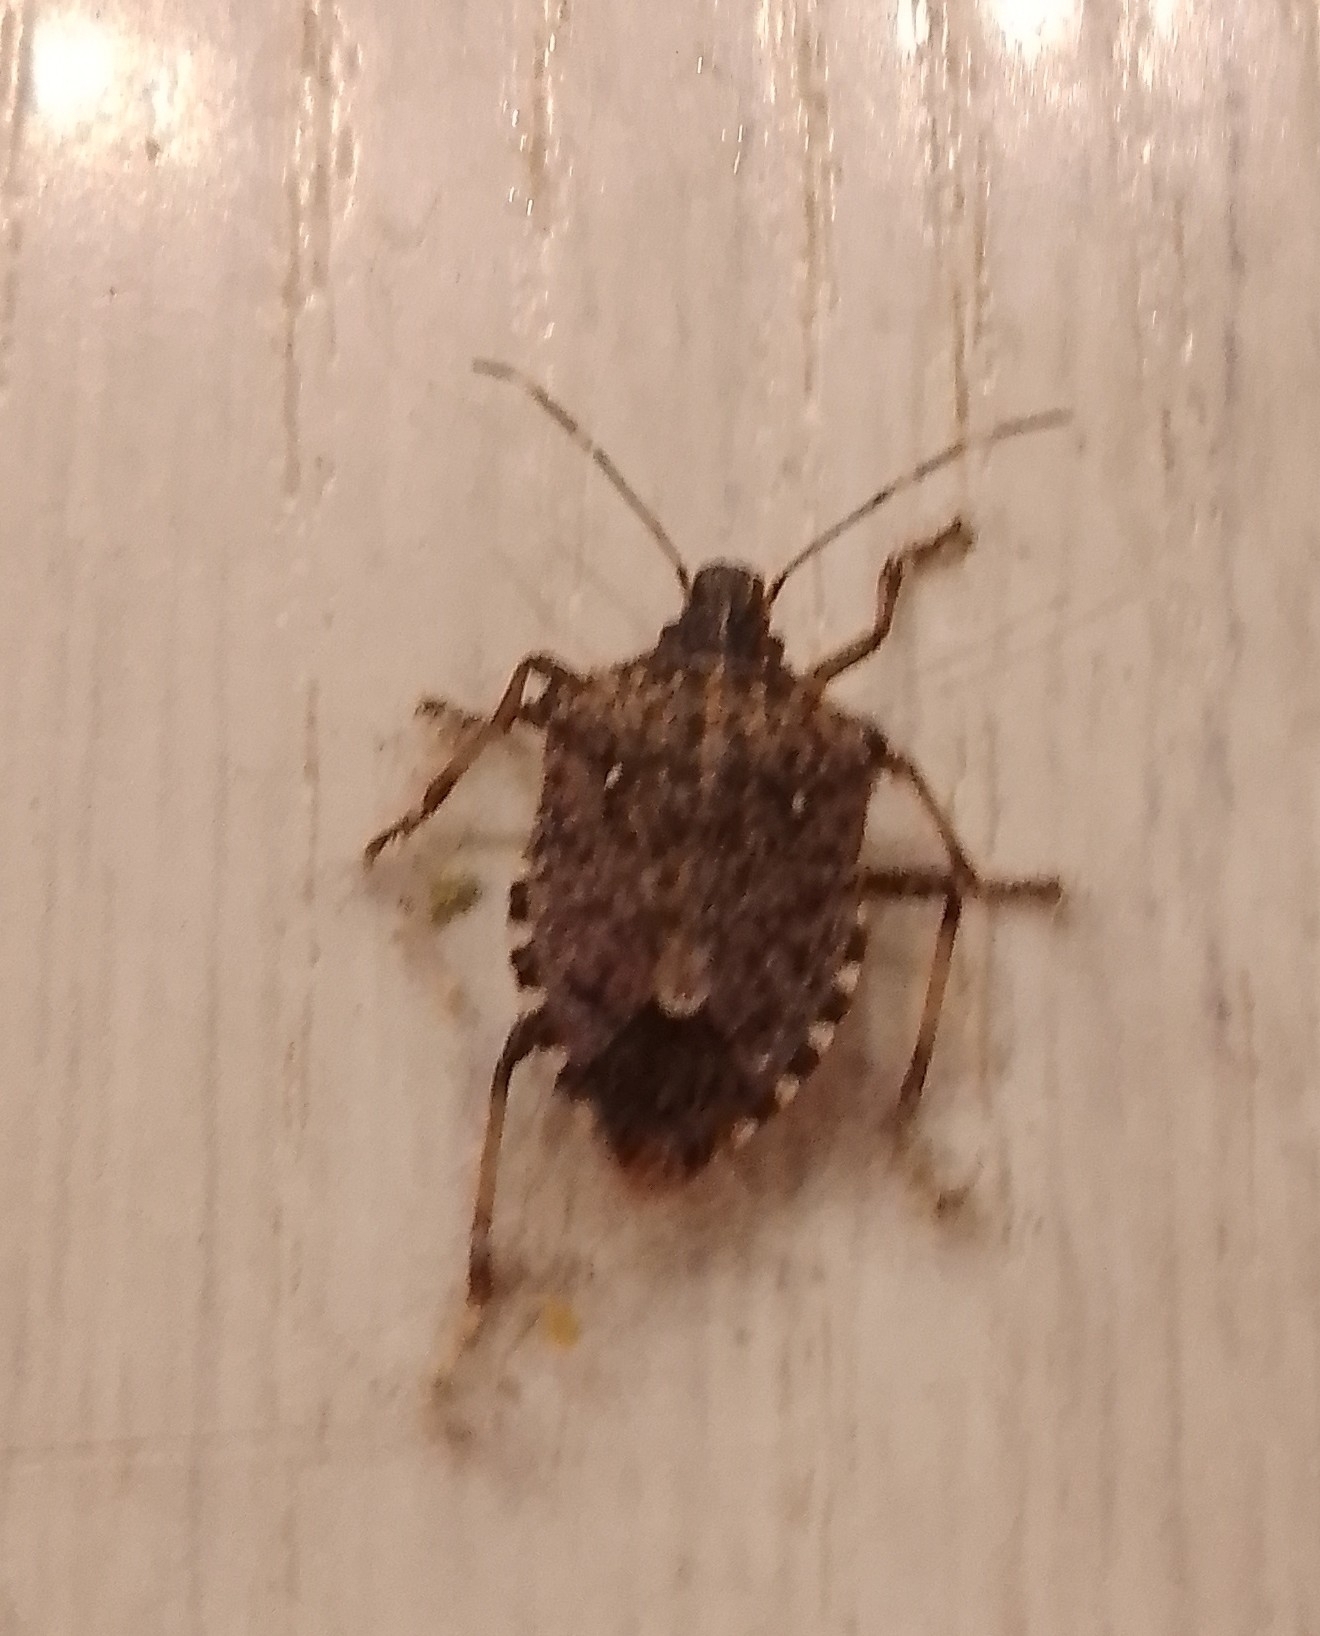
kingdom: Animalia
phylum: Arthropoda
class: Insecta
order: Hemiptera
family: Pentatomidae
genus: Halyomorpha
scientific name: Halyomorpha halys
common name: Brown marmorated stink bug
